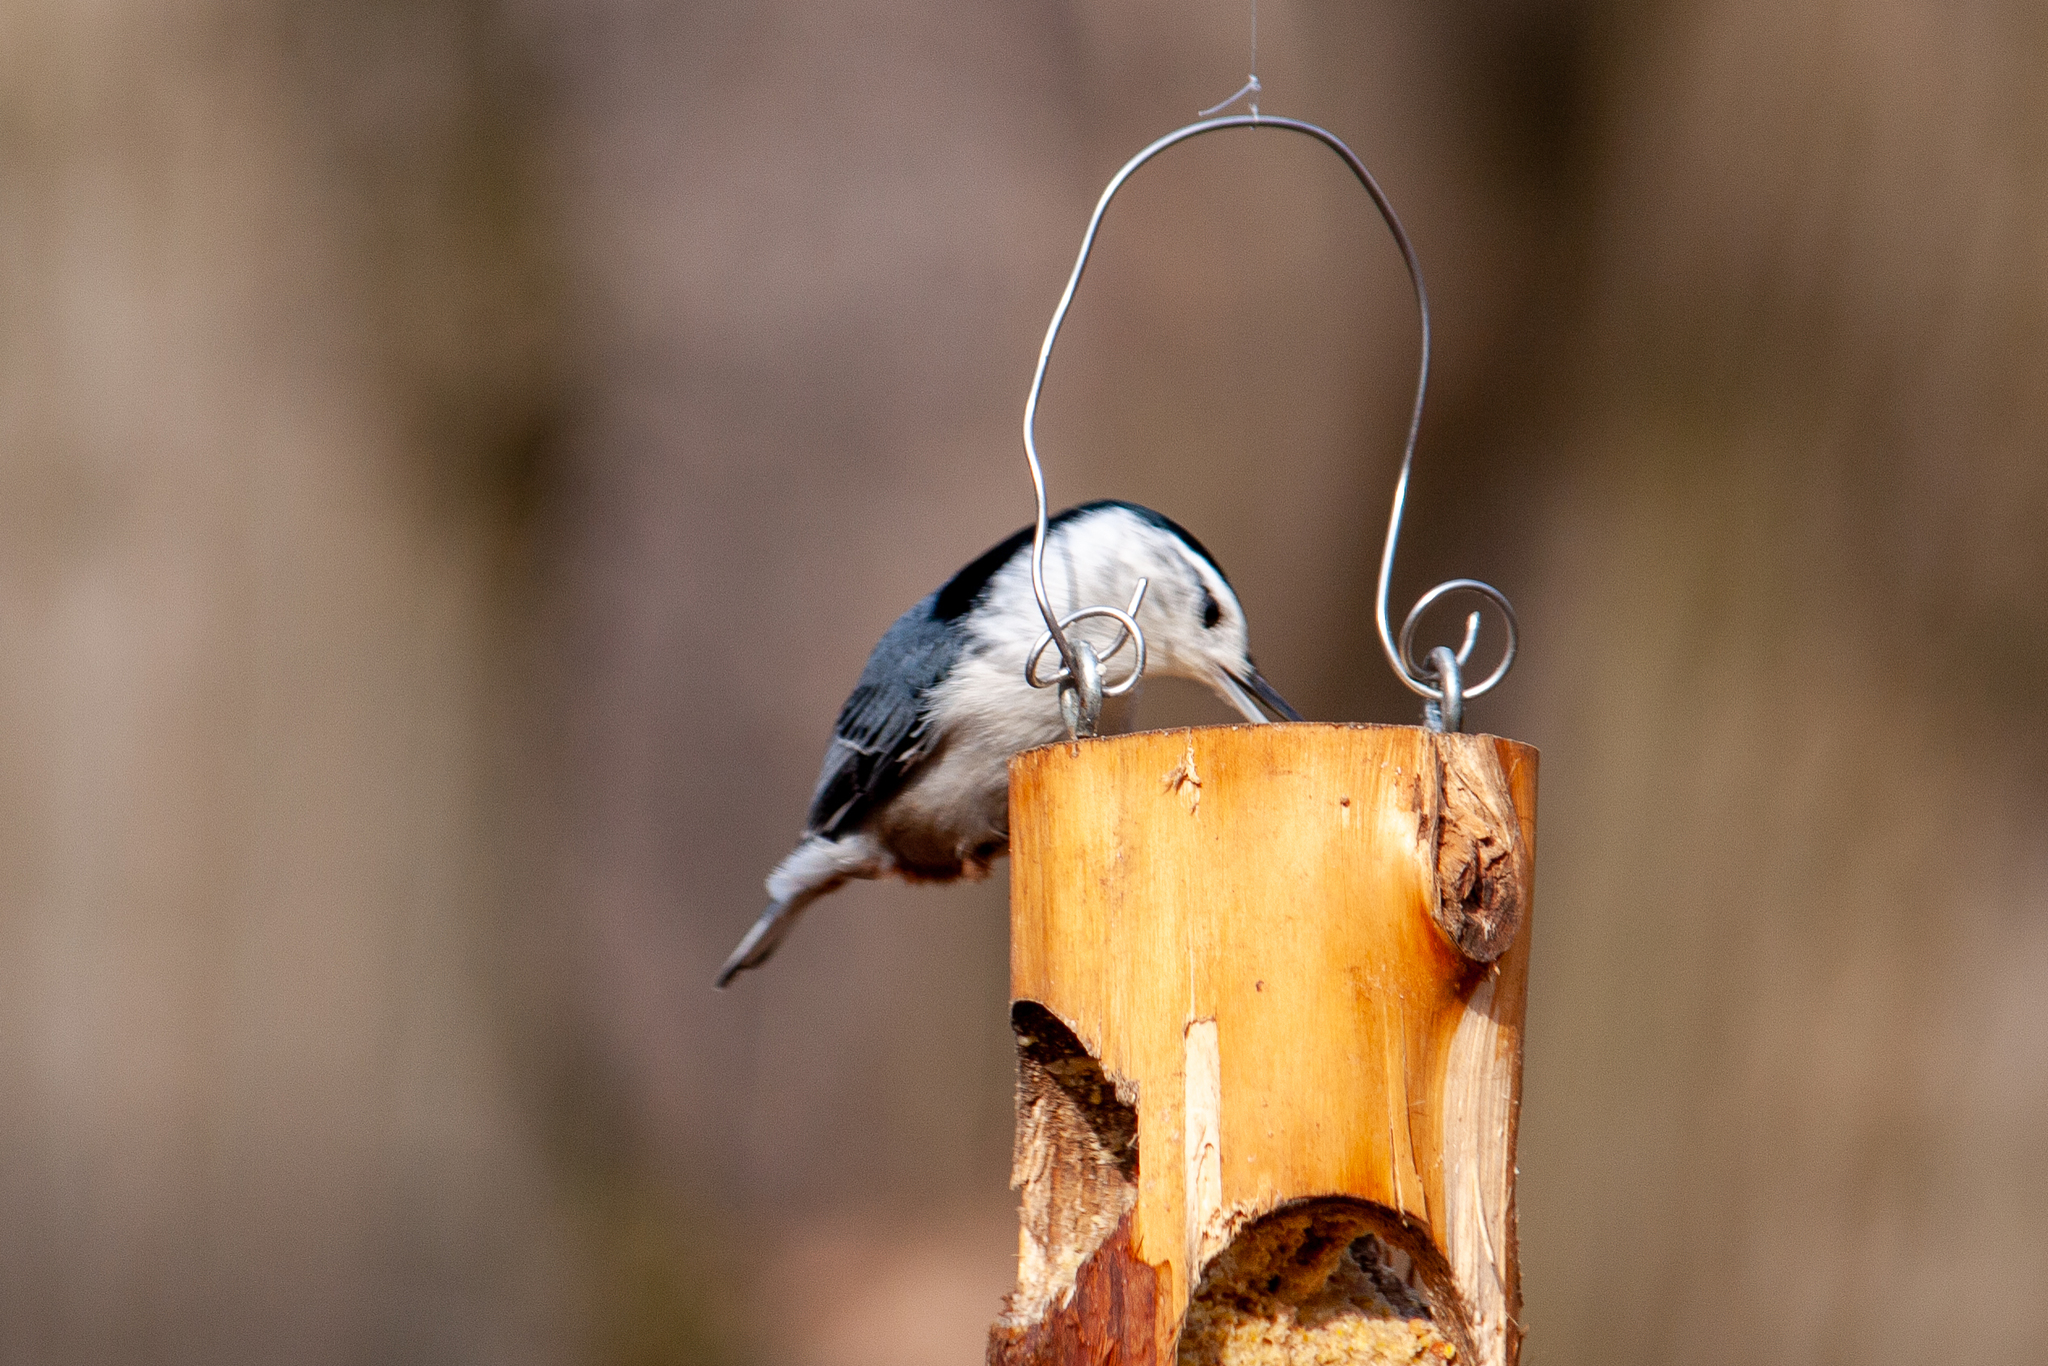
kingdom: Animalia
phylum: Chordata
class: Aves
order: Passeriformes
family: Sittidae
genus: Sitta
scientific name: Sitta carolinensis
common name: White-breasted nuthatch
